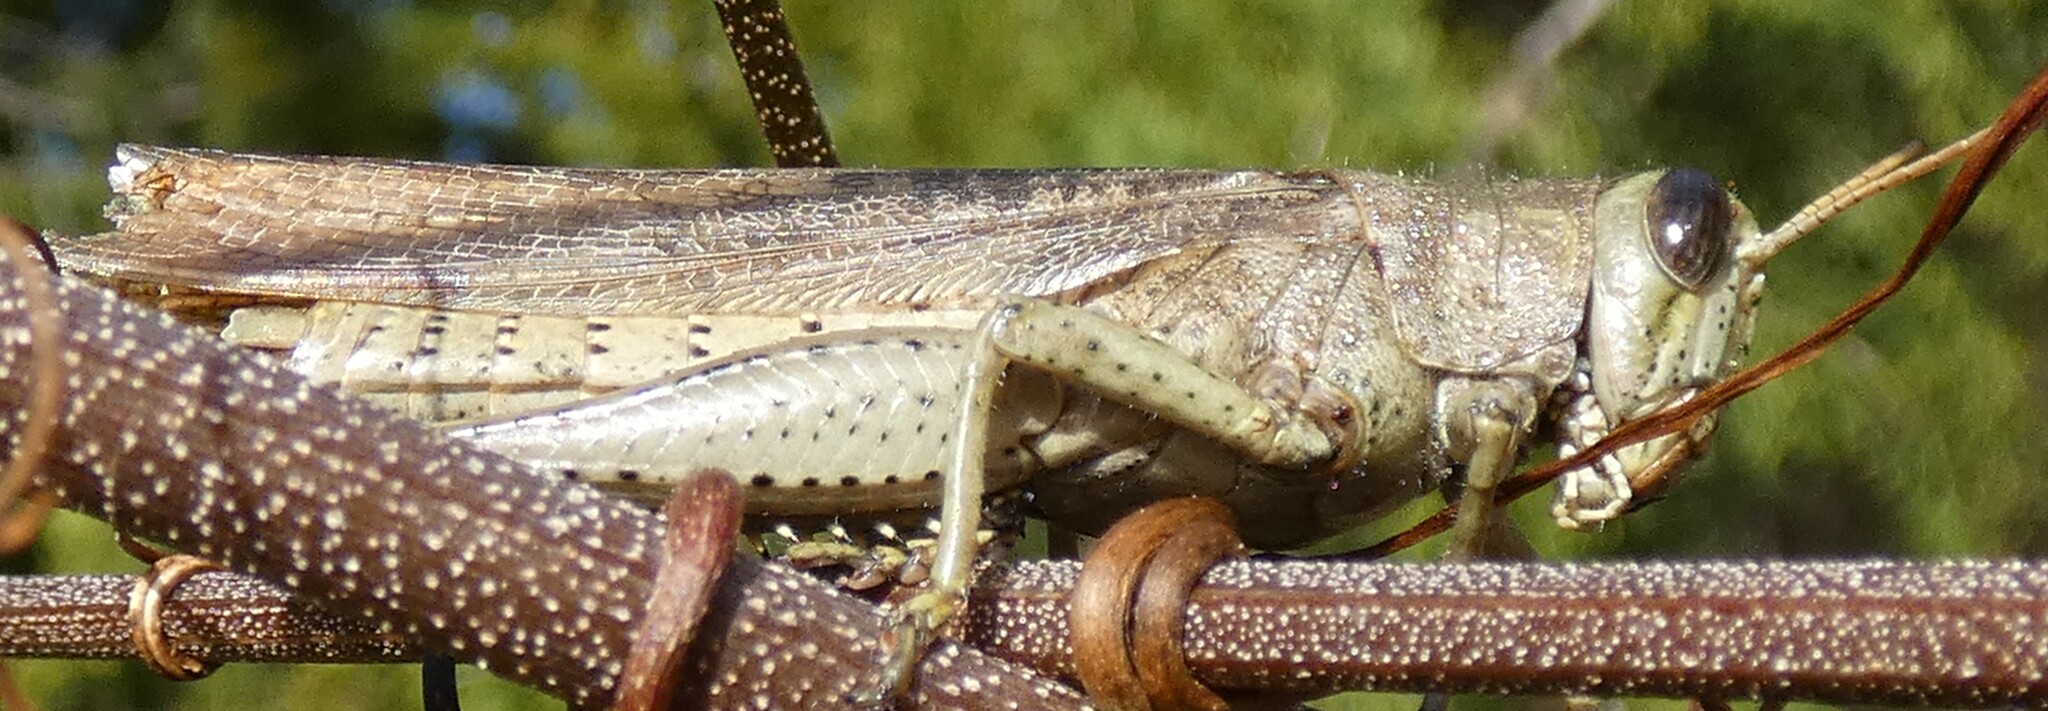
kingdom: Animalia
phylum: Arthropoda
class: Insecta
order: Orthoptera
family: Acrididae
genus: Schistocerca
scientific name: Schistocerca rubiginosa
